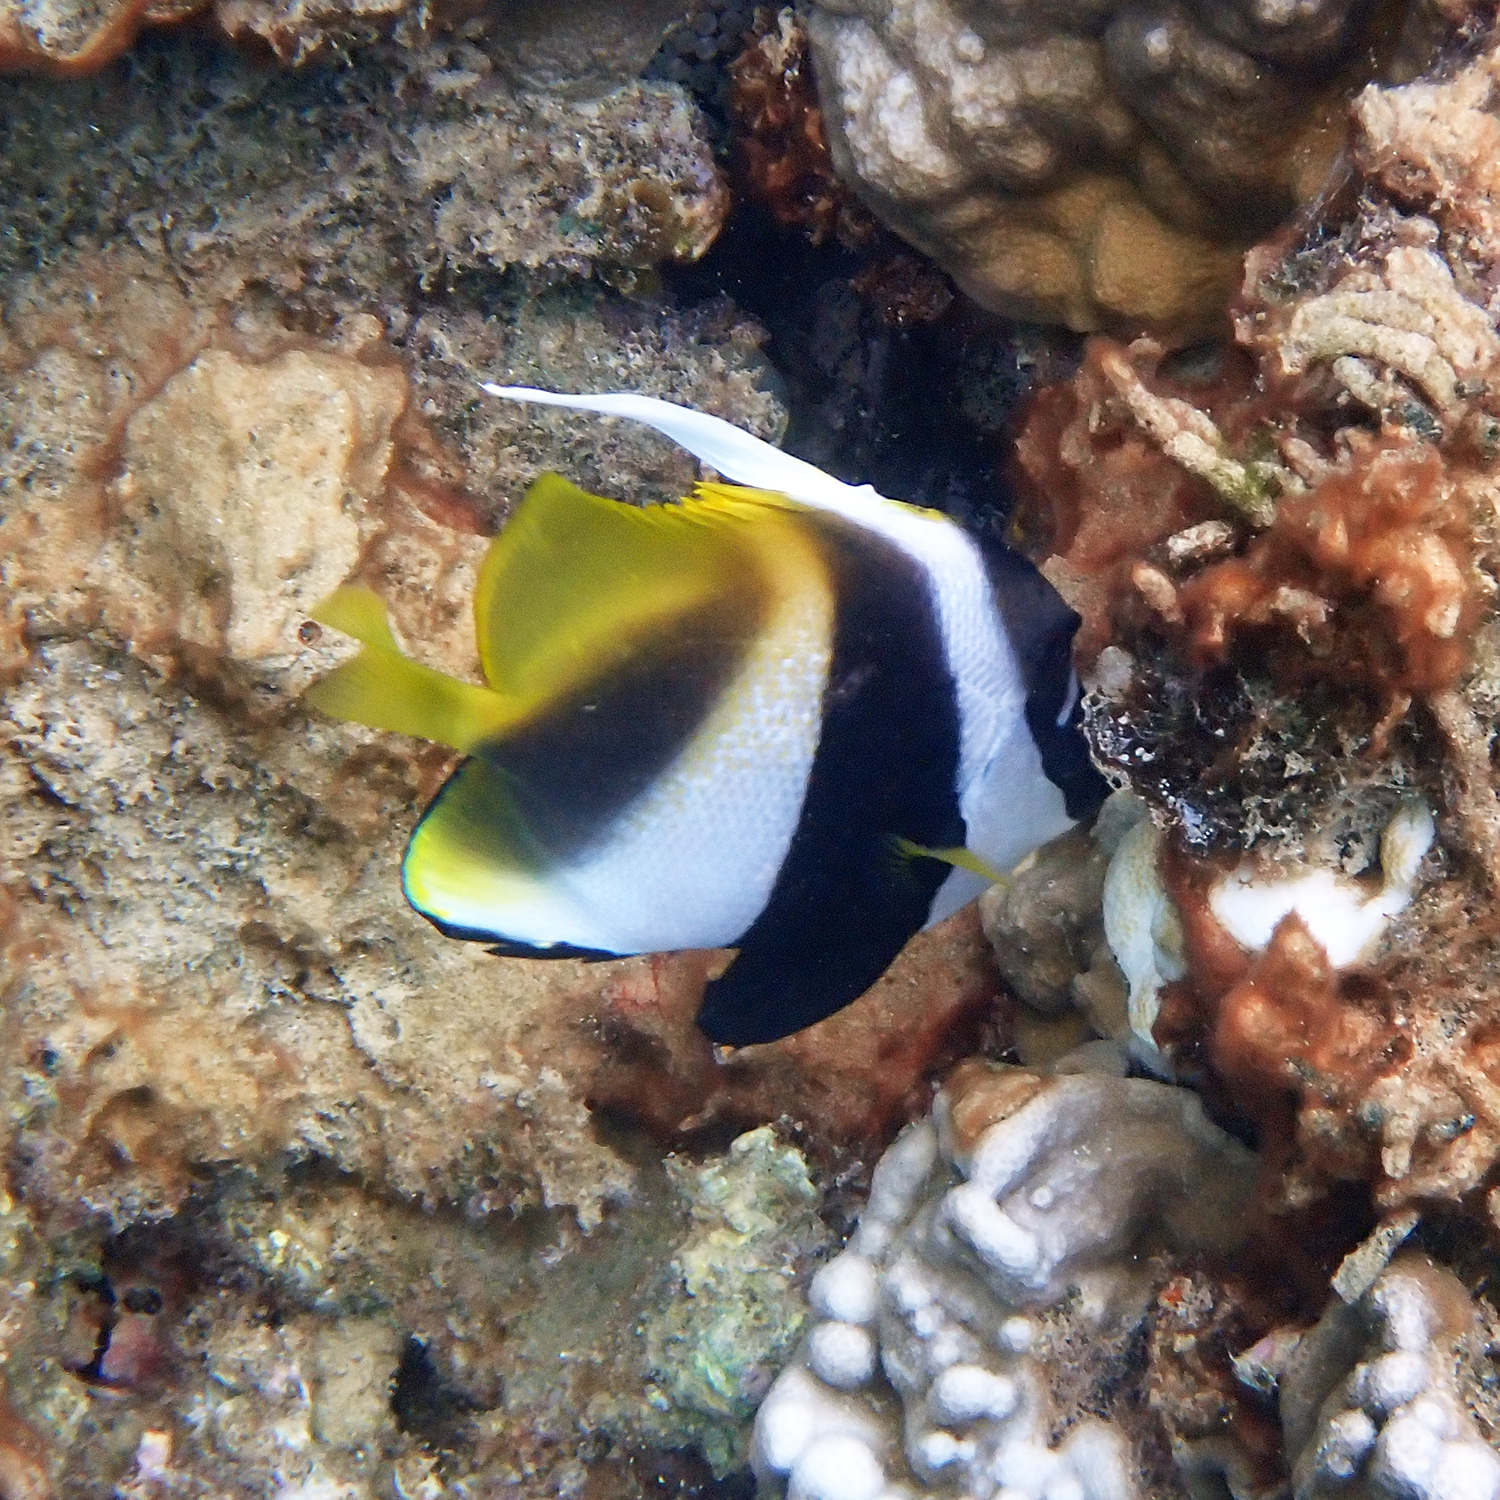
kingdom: Animalia
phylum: Chordata
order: Perciformes
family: Chaetodontidae
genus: Heniochus
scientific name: Heniochus monoceros
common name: Masked bannerfish
